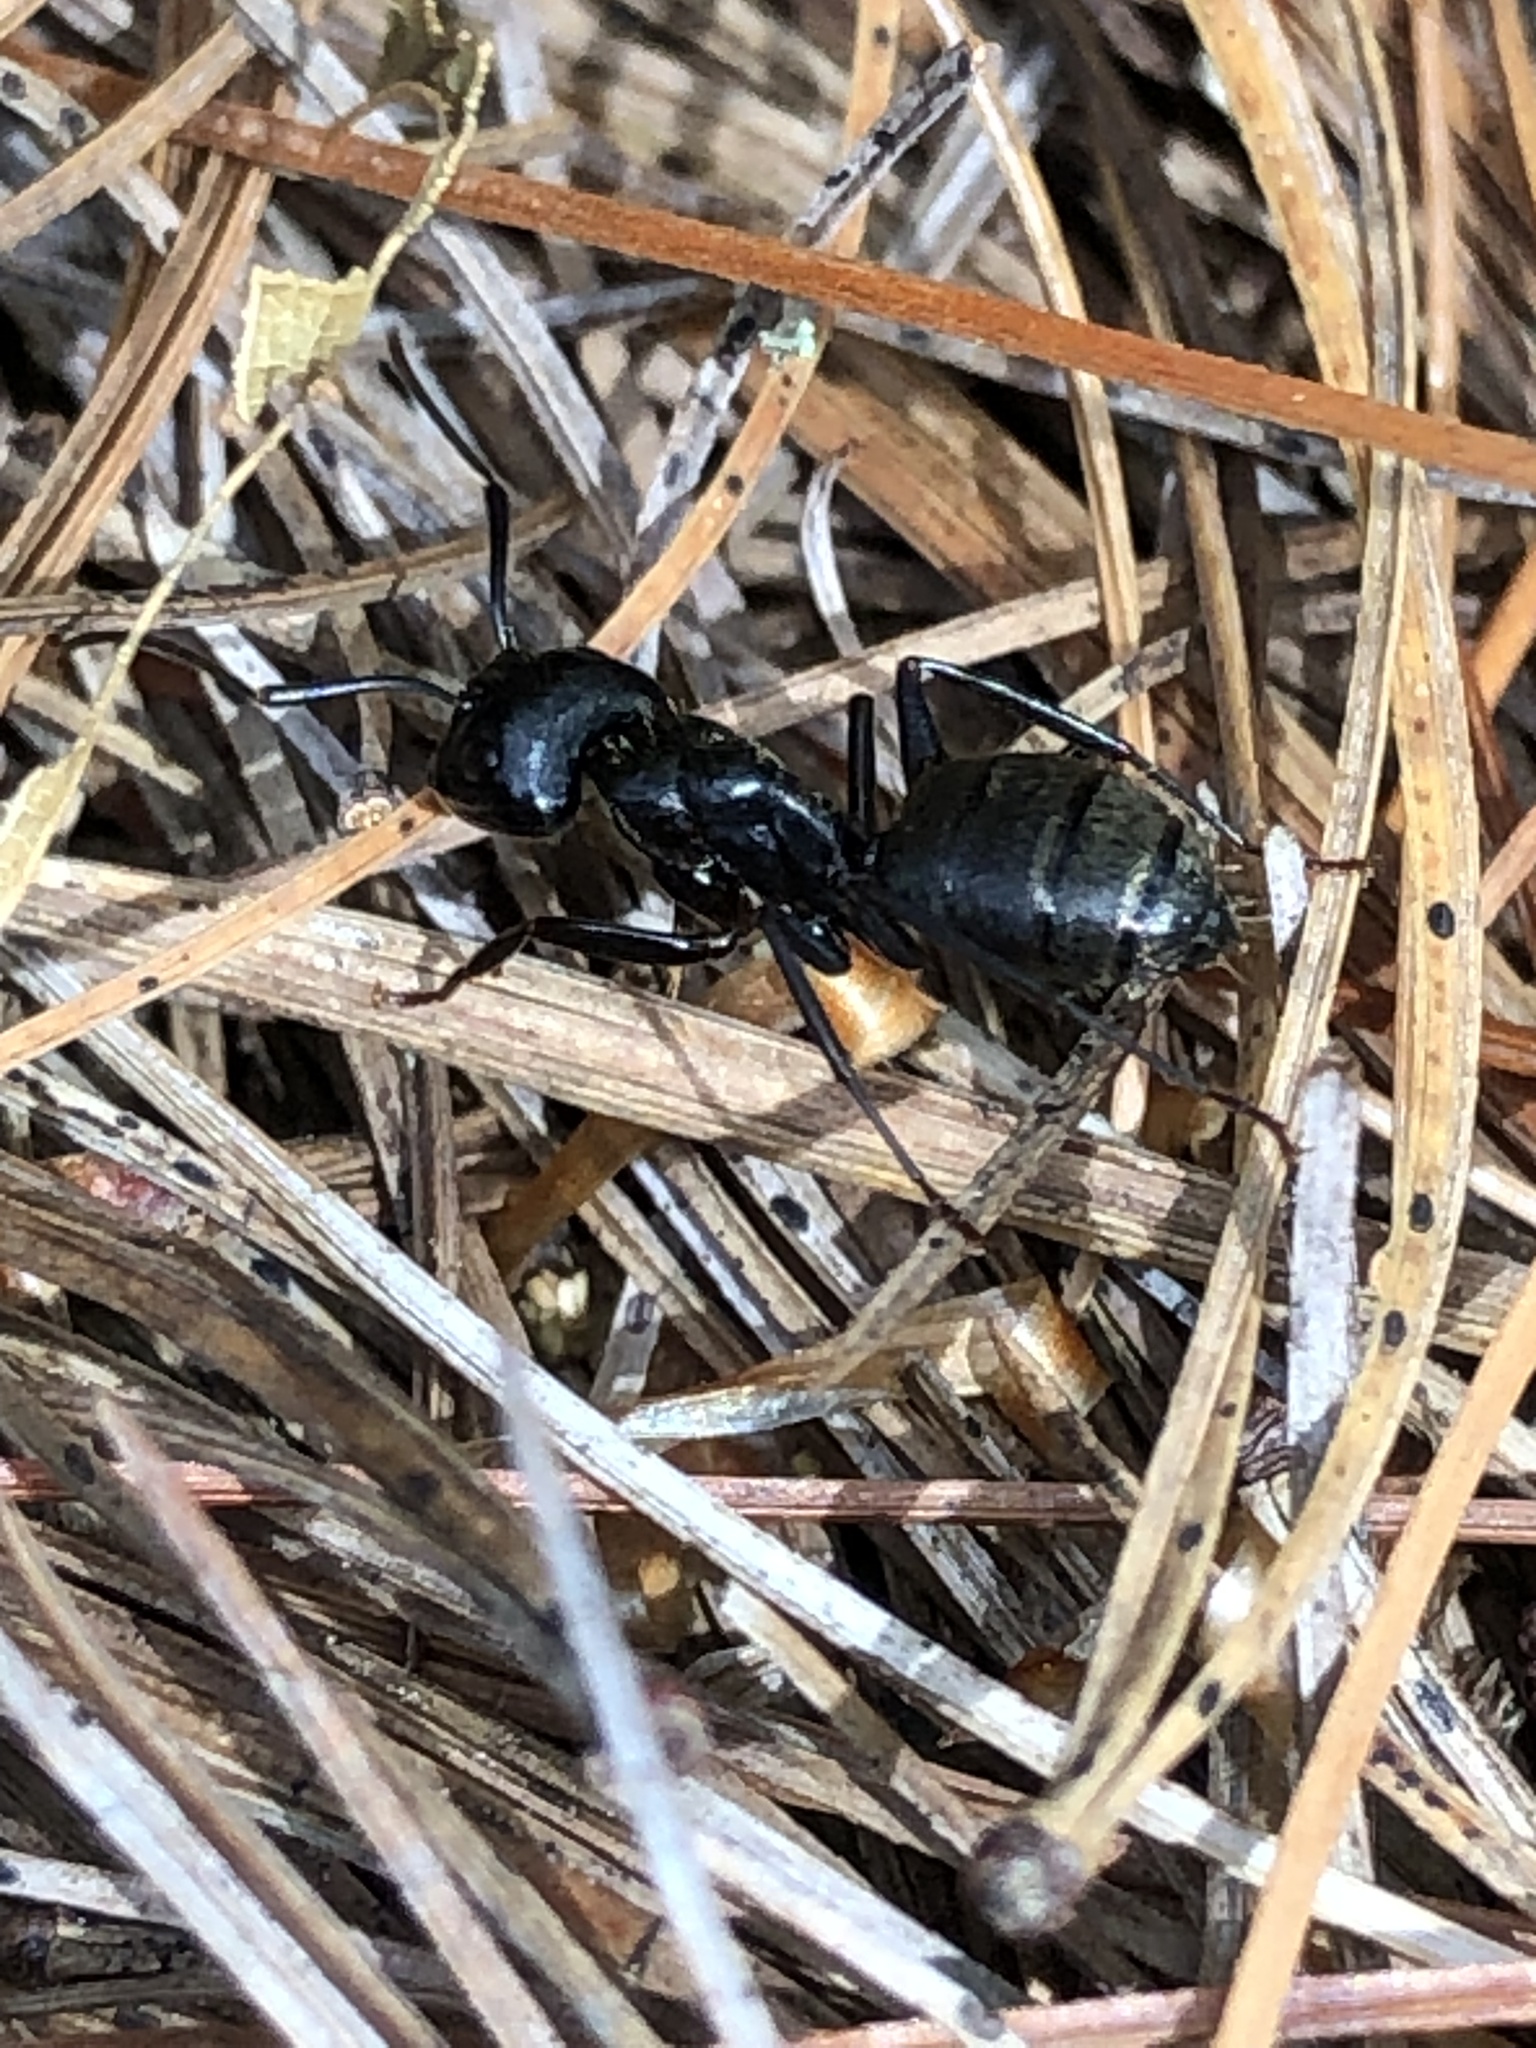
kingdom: Animalia
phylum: Arthropoda
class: Insecta
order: Hymenoptera
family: Formicidae
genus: Camponotus
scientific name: Camponotus pennsylvanicus
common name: Black carpenter ant
